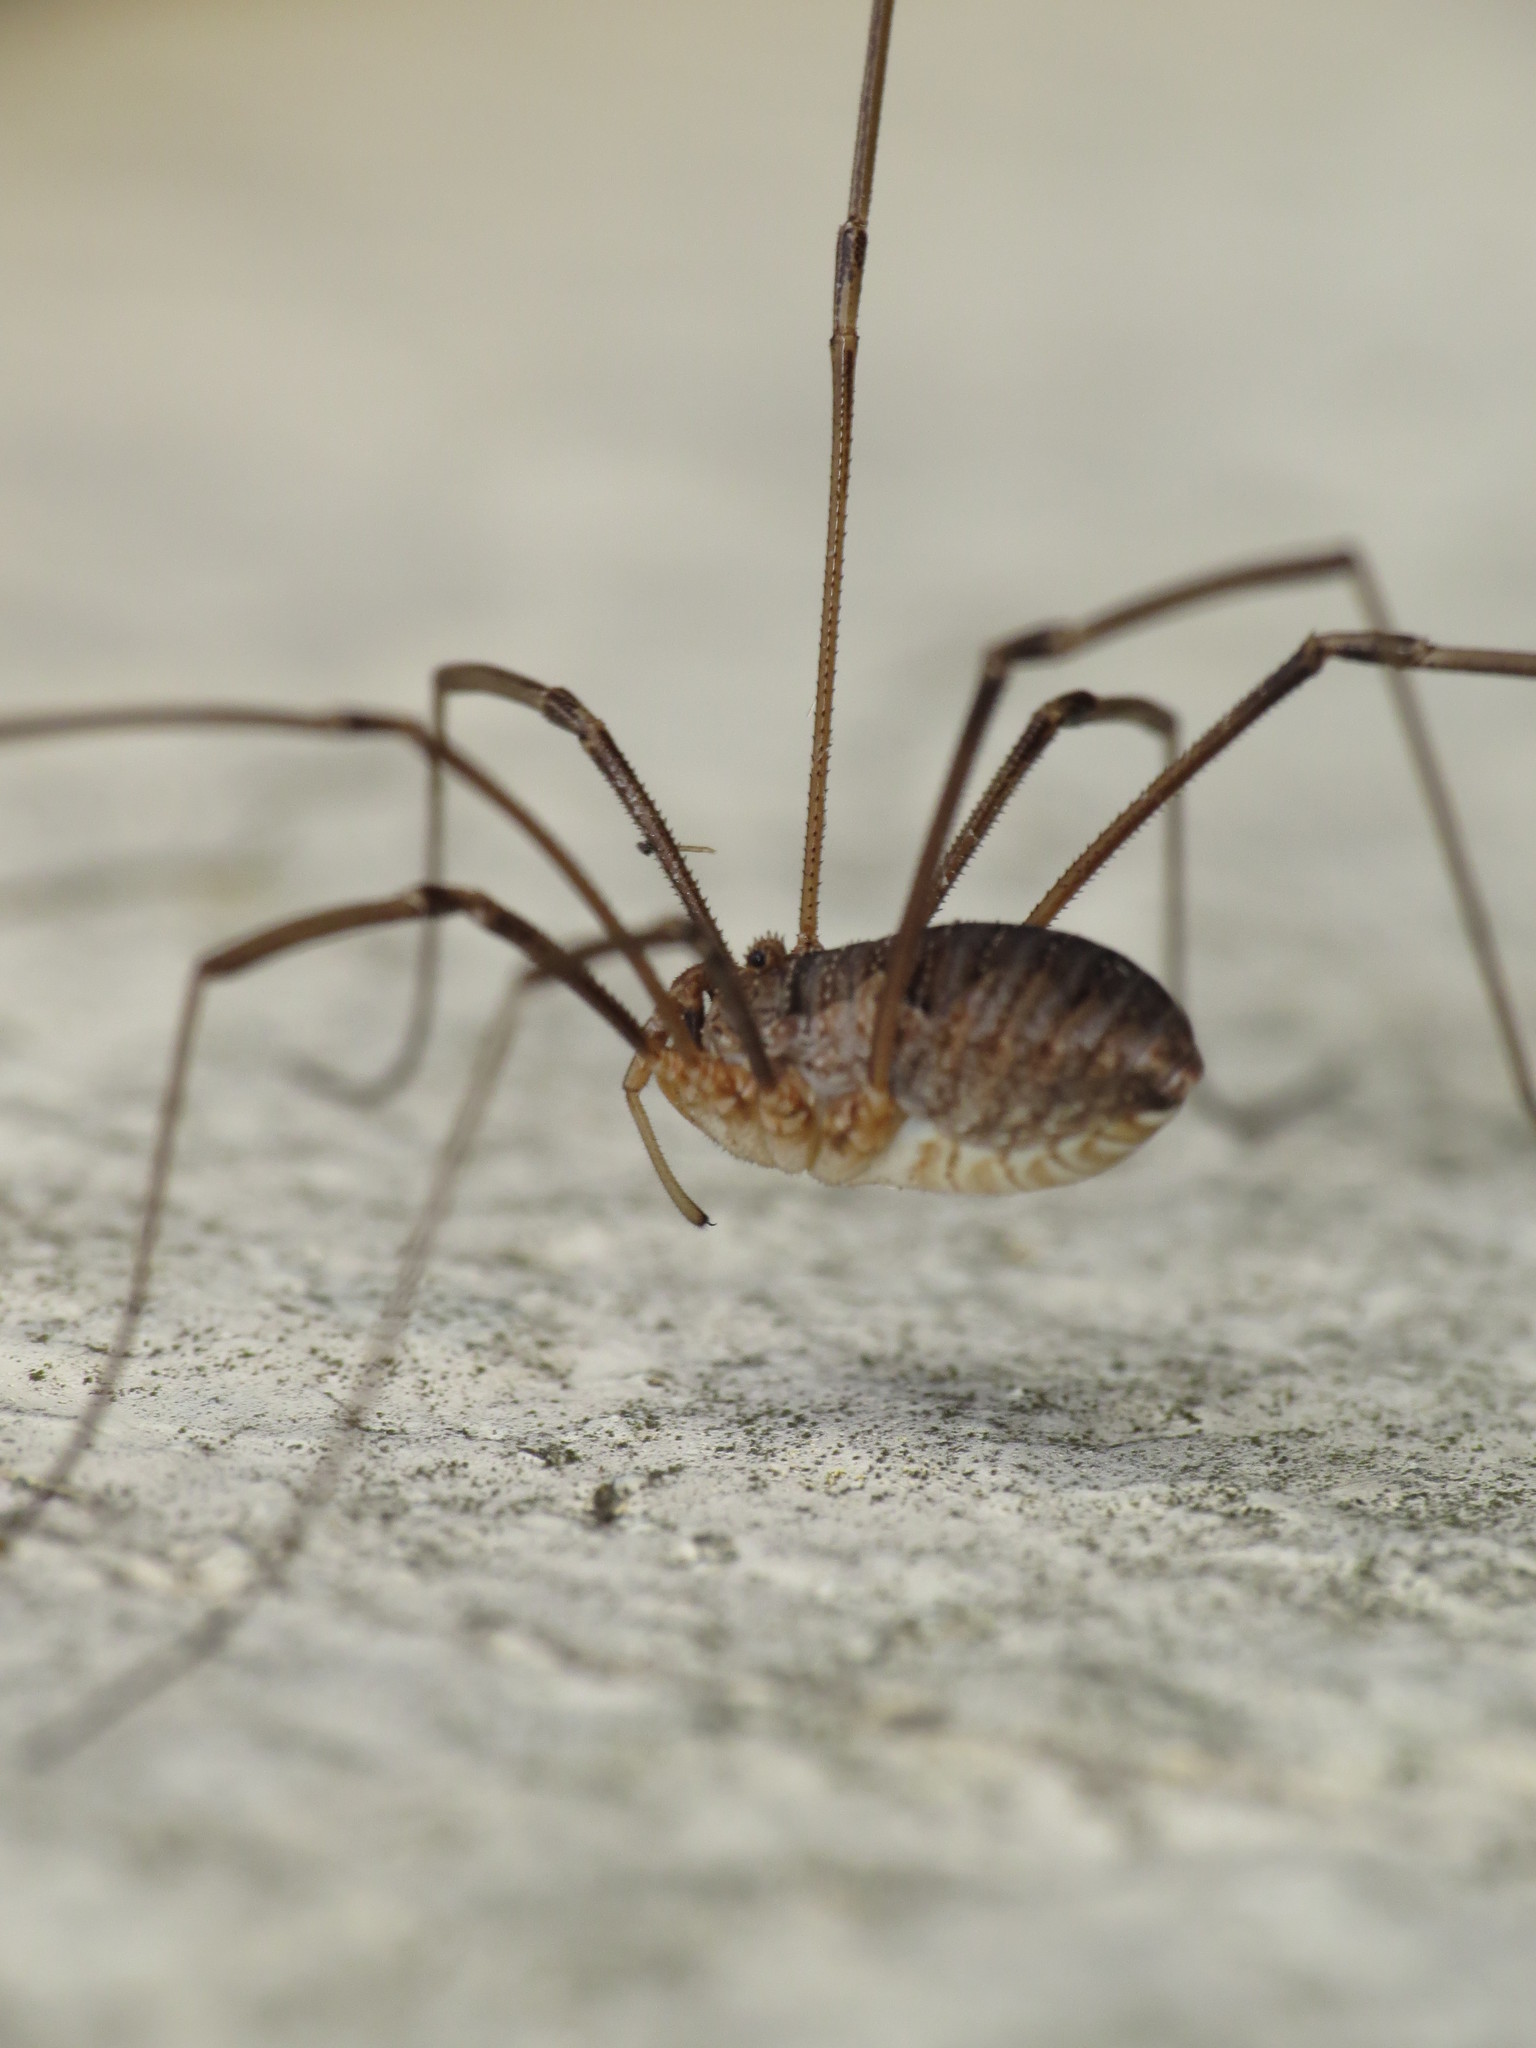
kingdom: Animalia
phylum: Arthropoda
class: Arachnida
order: Opiliones
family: Phalangiidae
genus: Phalangium
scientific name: Phalangium opilio
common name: Daddy longleg
